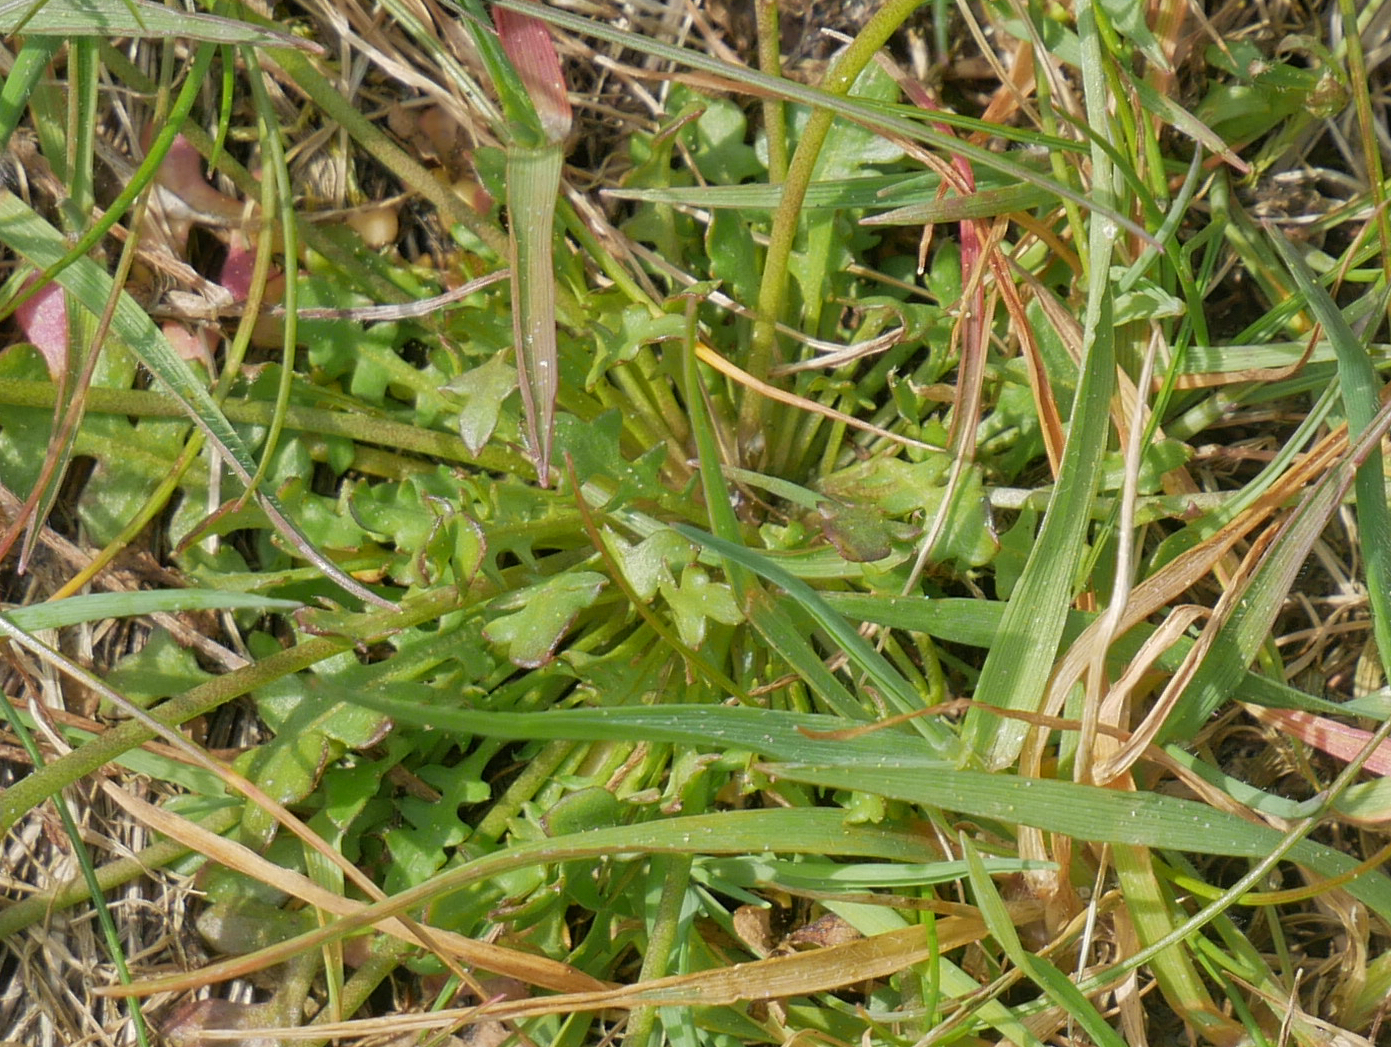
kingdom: Plantae
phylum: Tracheophyta
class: Magnoliopsida
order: Brassicales
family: Brassicaceae
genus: Teesdalia
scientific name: Teesdalia nudicaulis
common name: Shepherd's cress
